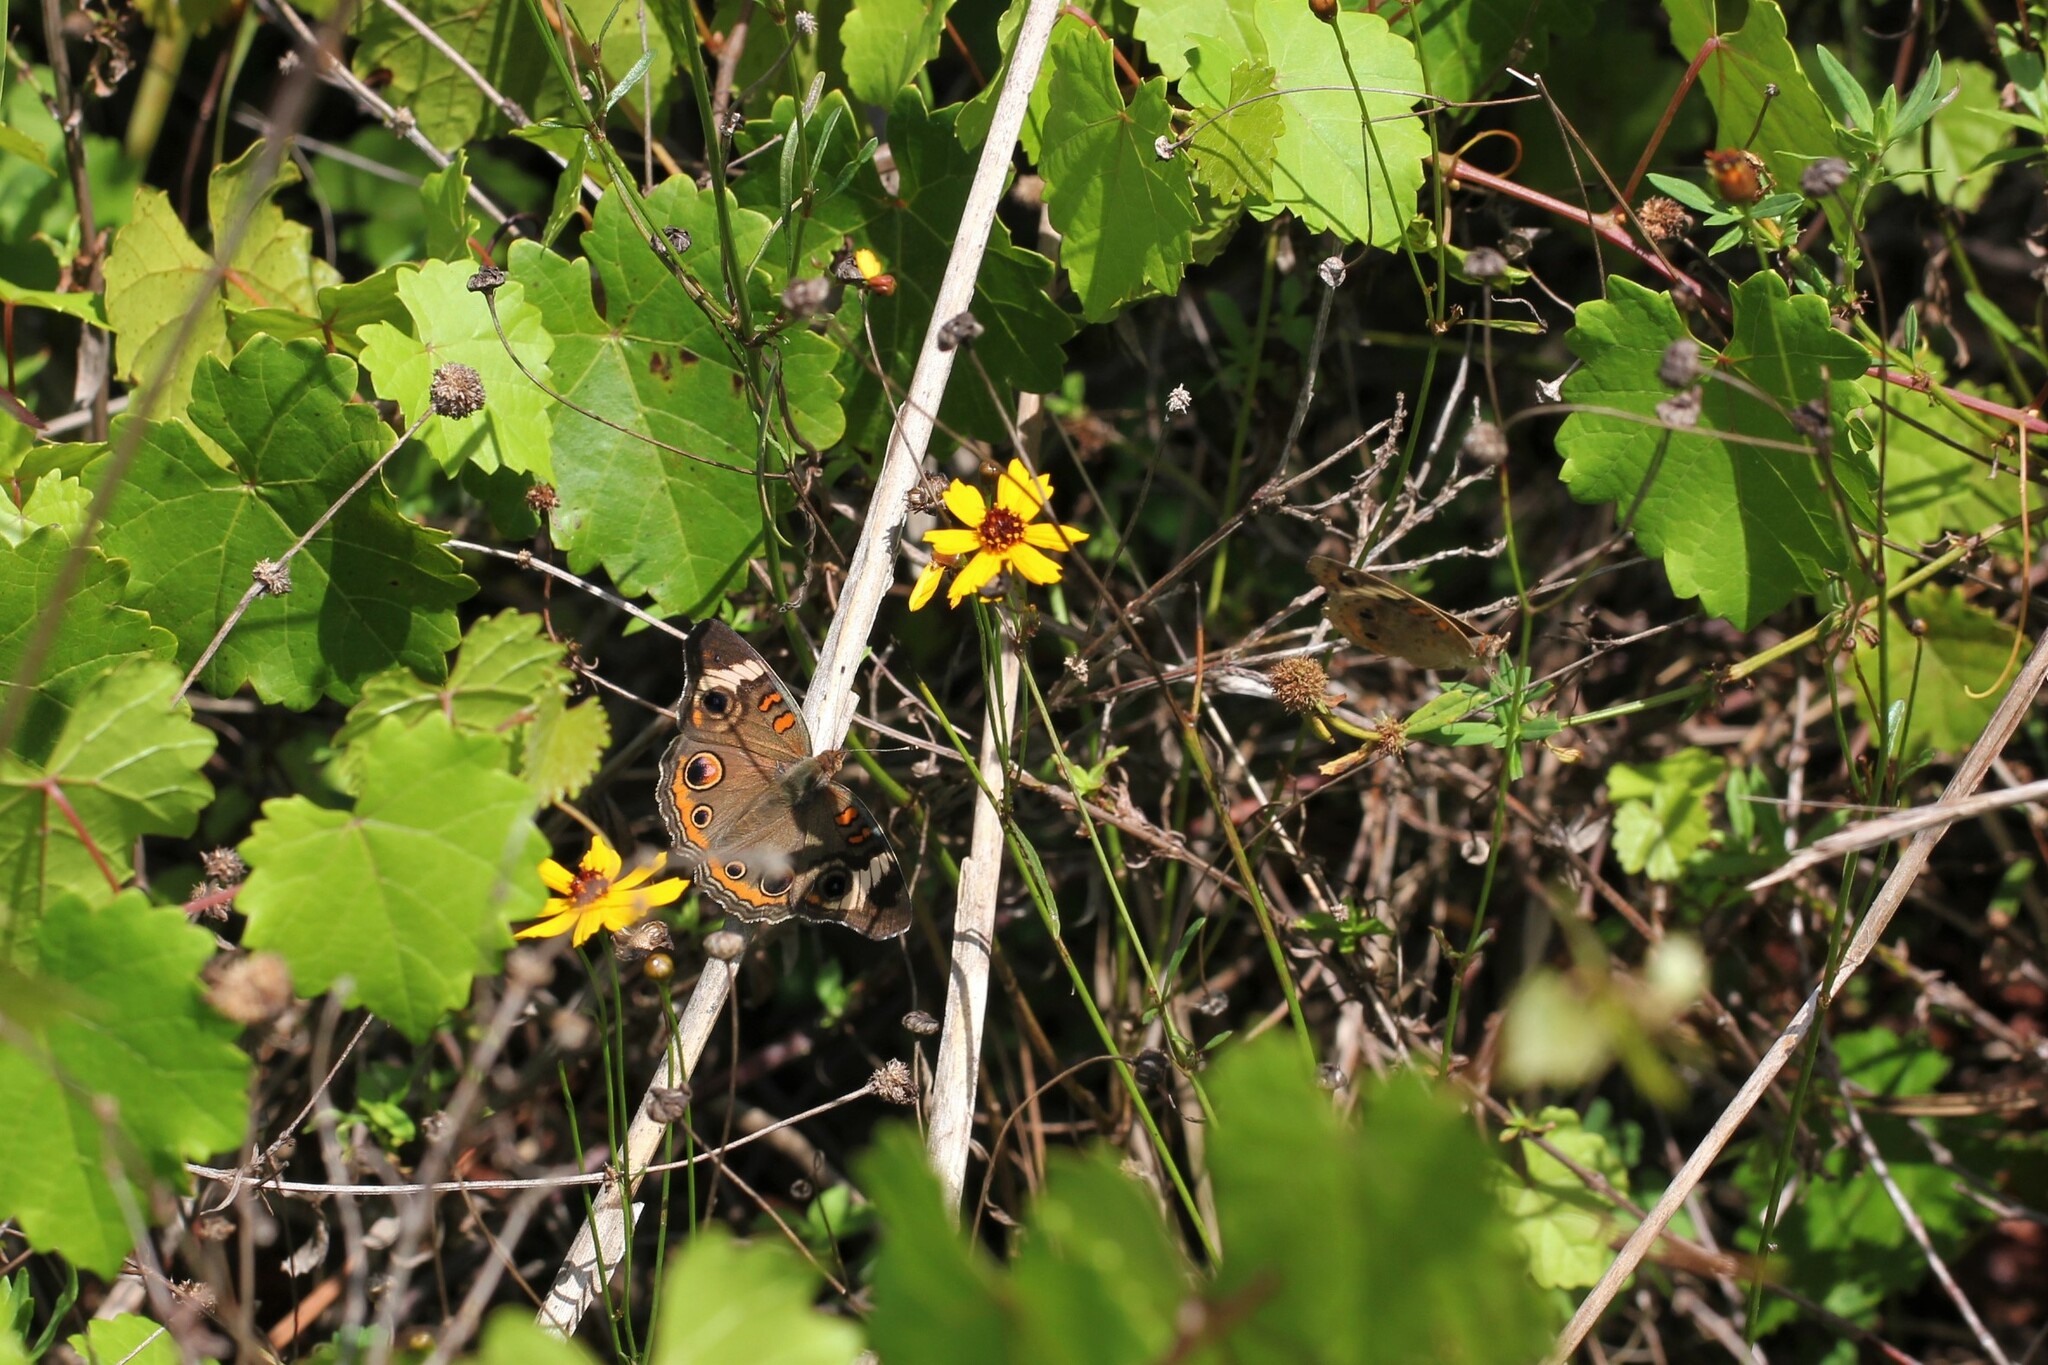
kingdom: Animalia
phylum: Arthropoda
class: Insecta
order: Lepidoptera
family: Nymphalidae
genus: Junonia
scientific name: Junonia coenia
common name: Common buckeye
